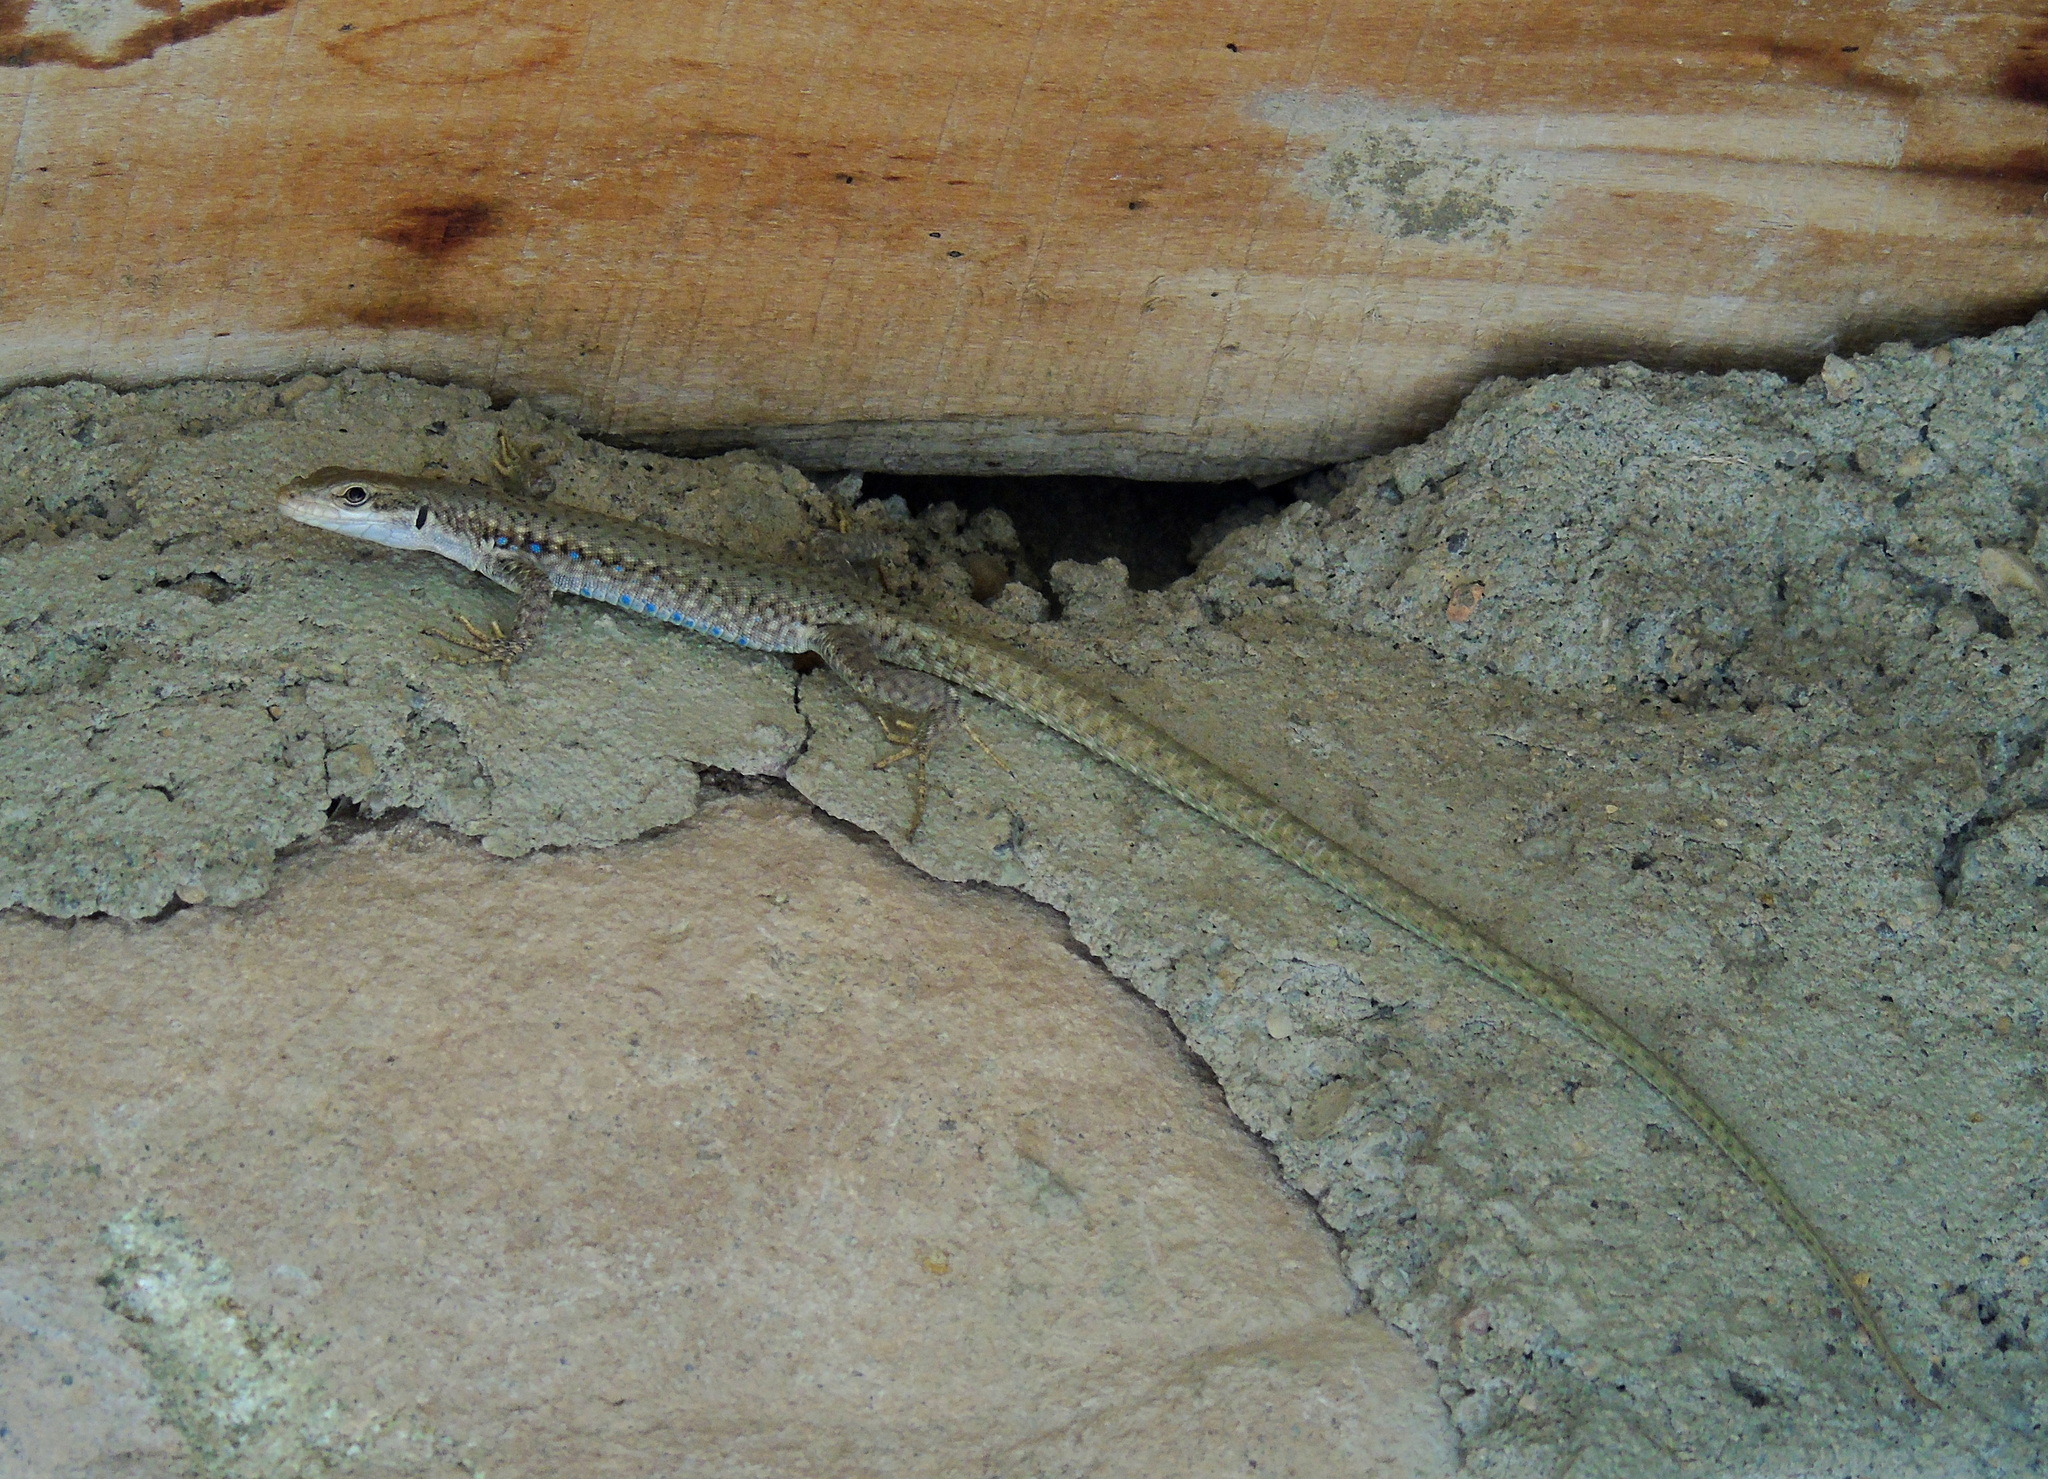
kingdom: Animalia
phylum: Chordata
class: Squamata
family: Lacertidae
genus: Darevskia
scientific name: Darevskia raddei
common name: Radde's lizard
